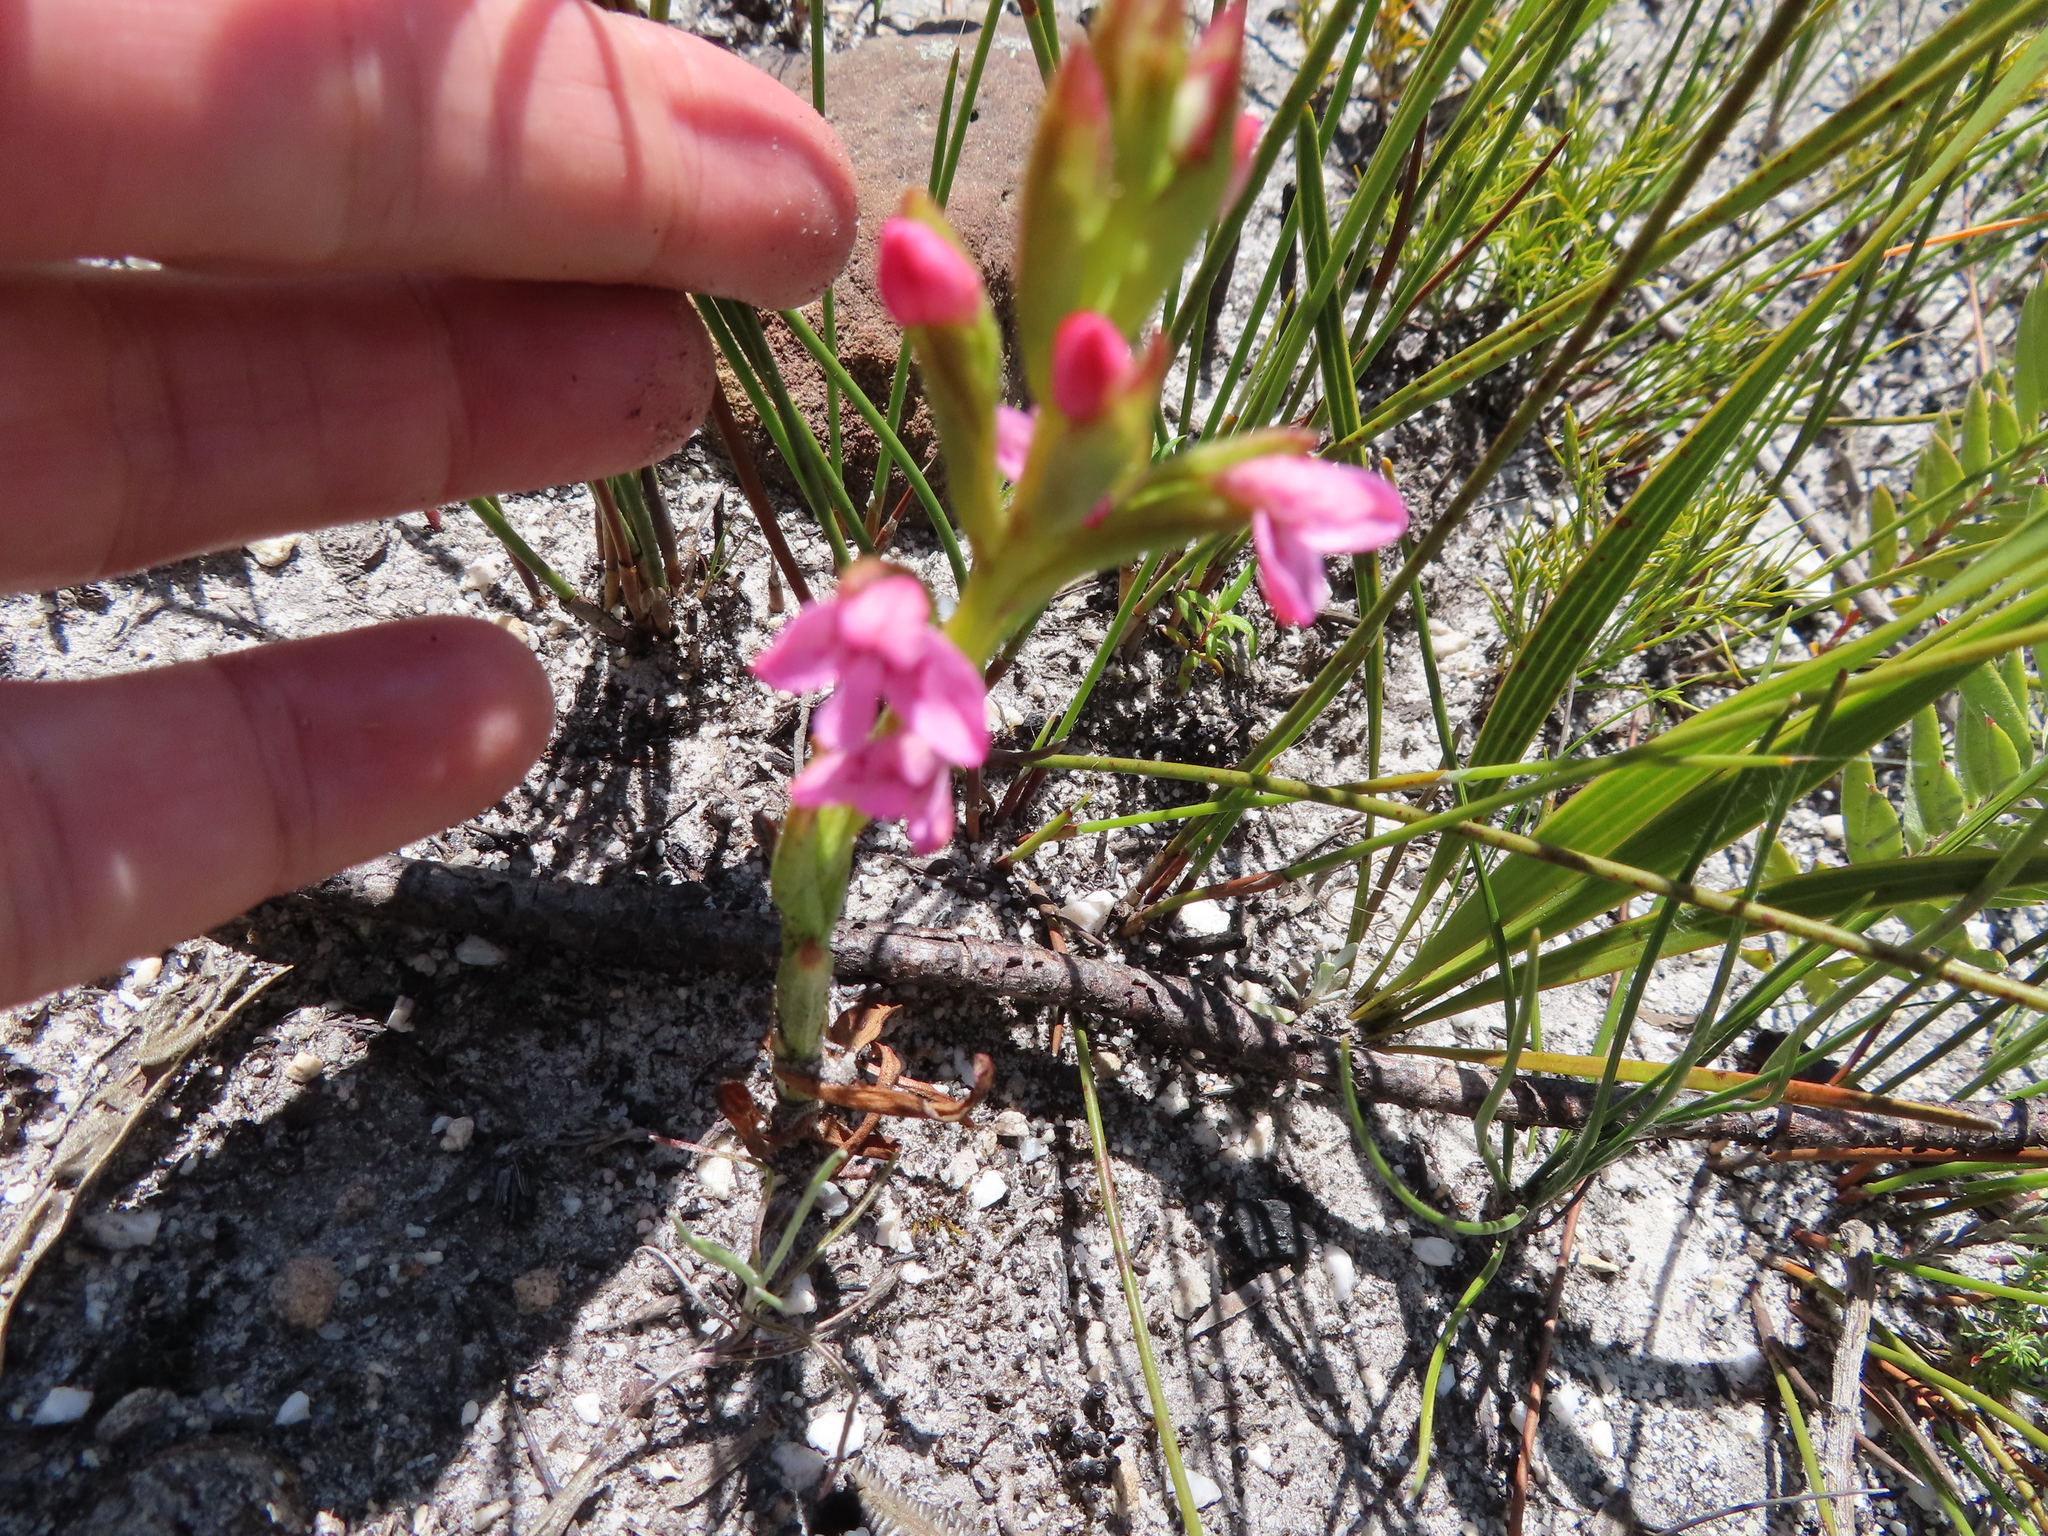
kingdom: Plantae
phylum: Tracheophyta
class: Liliopsida
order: Asparagales
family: Orchidaceae
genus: Disa
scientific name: Disa vaginata
